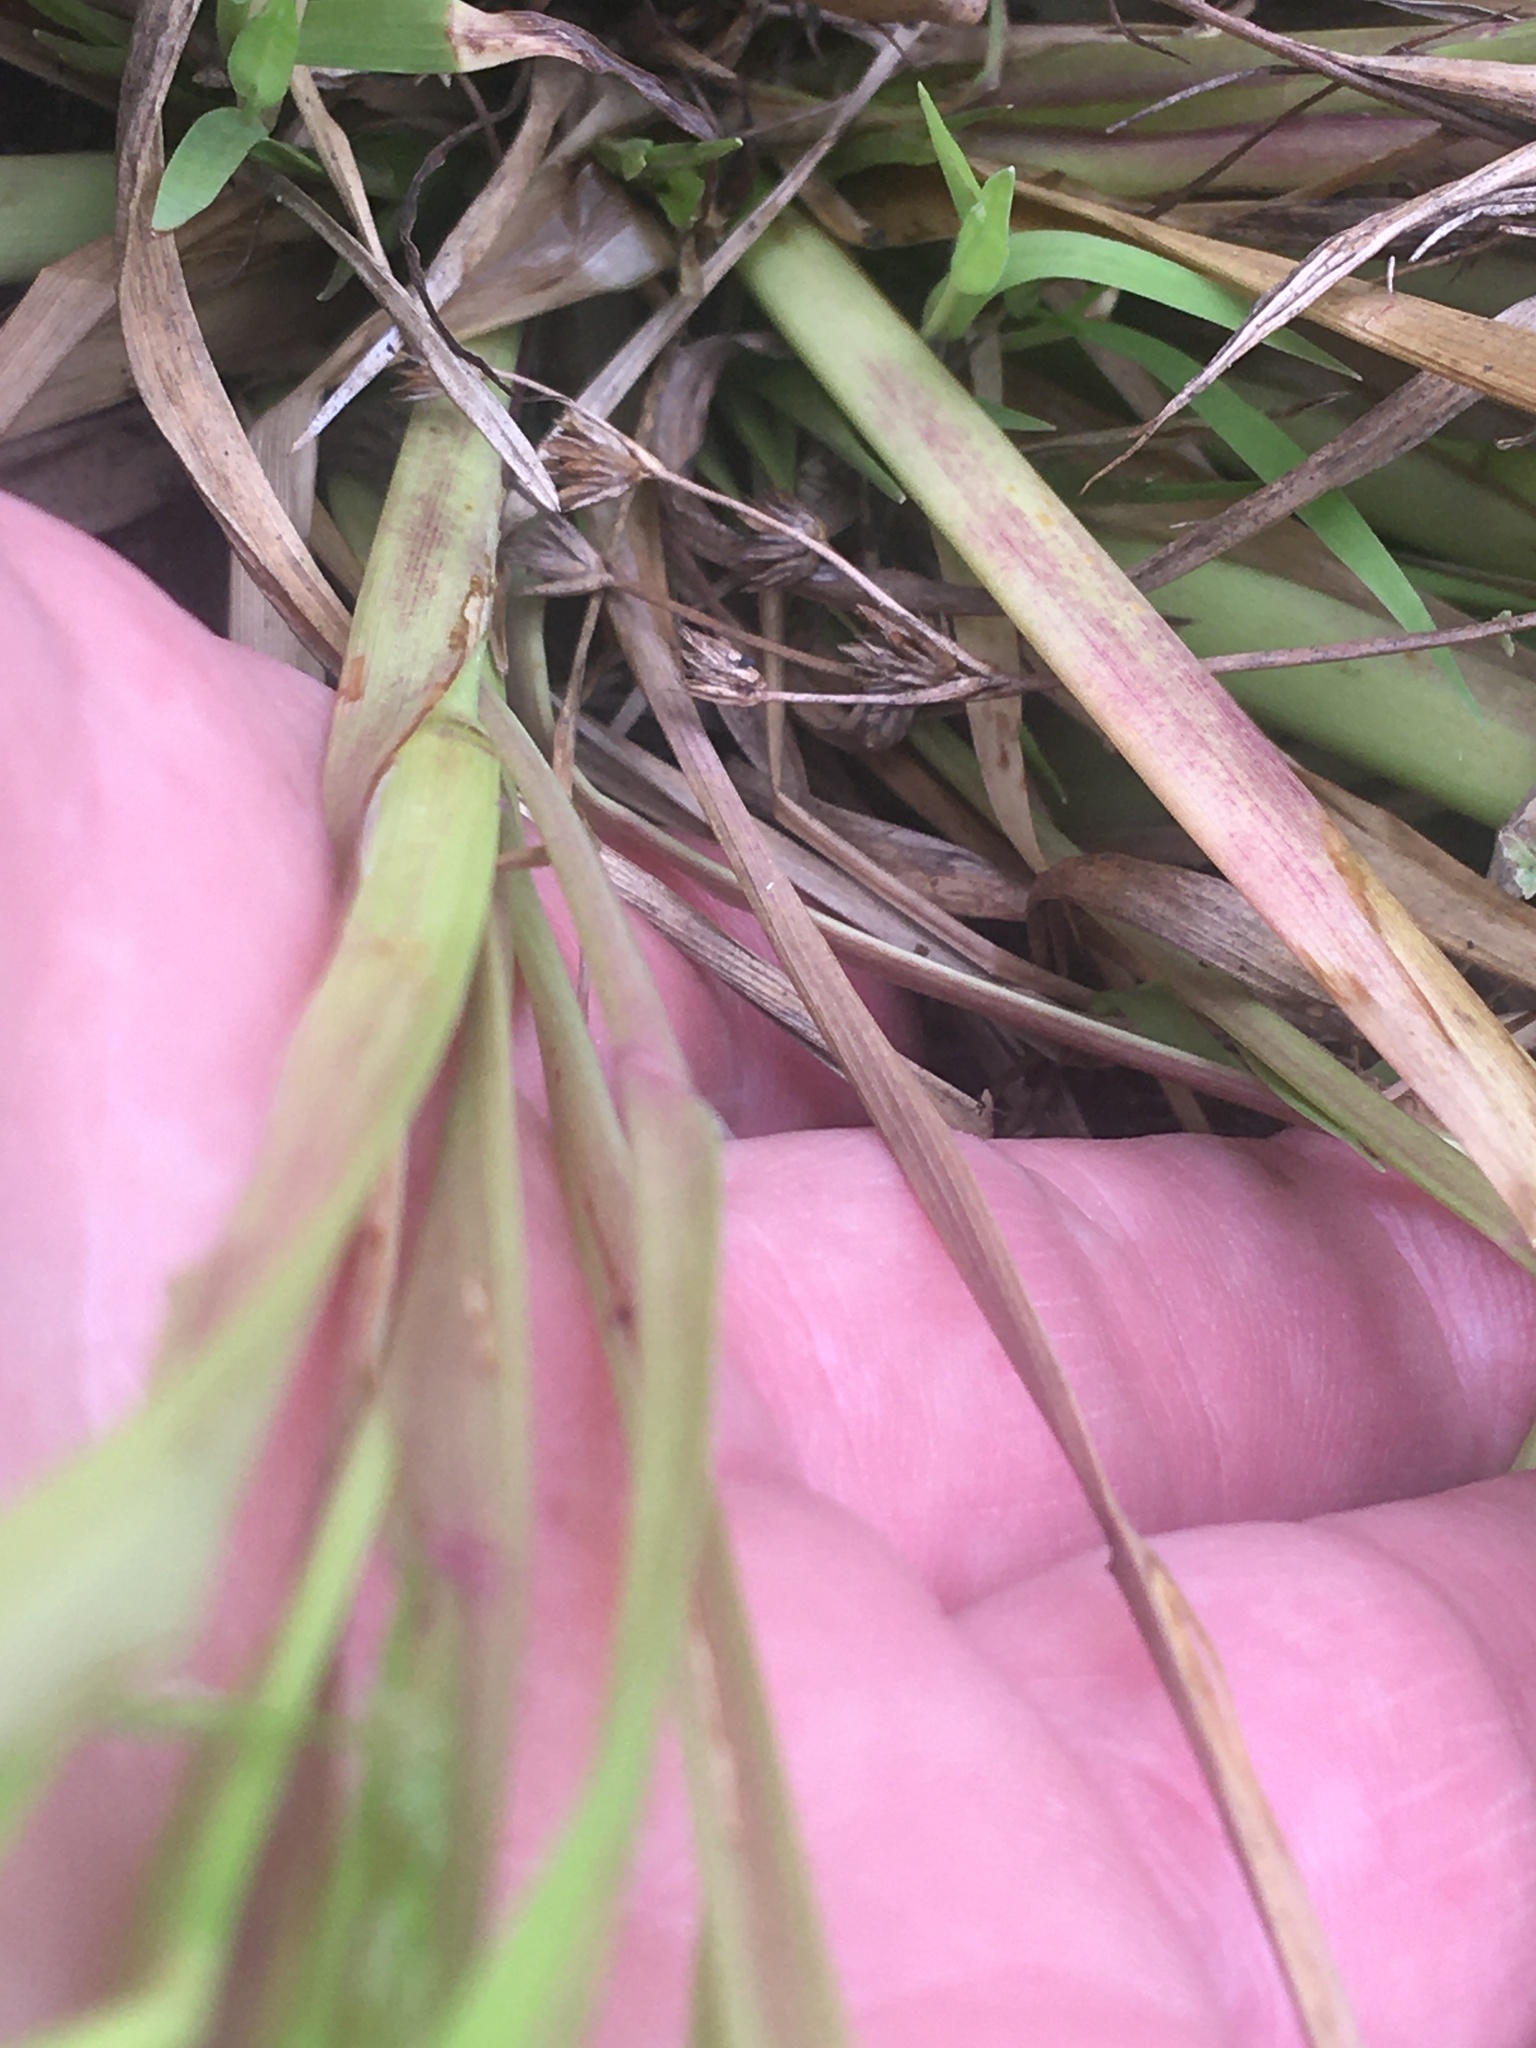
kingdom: Plantae
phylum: Tracheophyta
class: Liliopsida
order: Poales
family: Poaceae
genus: Coleataenia
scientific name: Coleataenia rigidula
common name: Redtop panicgrass
